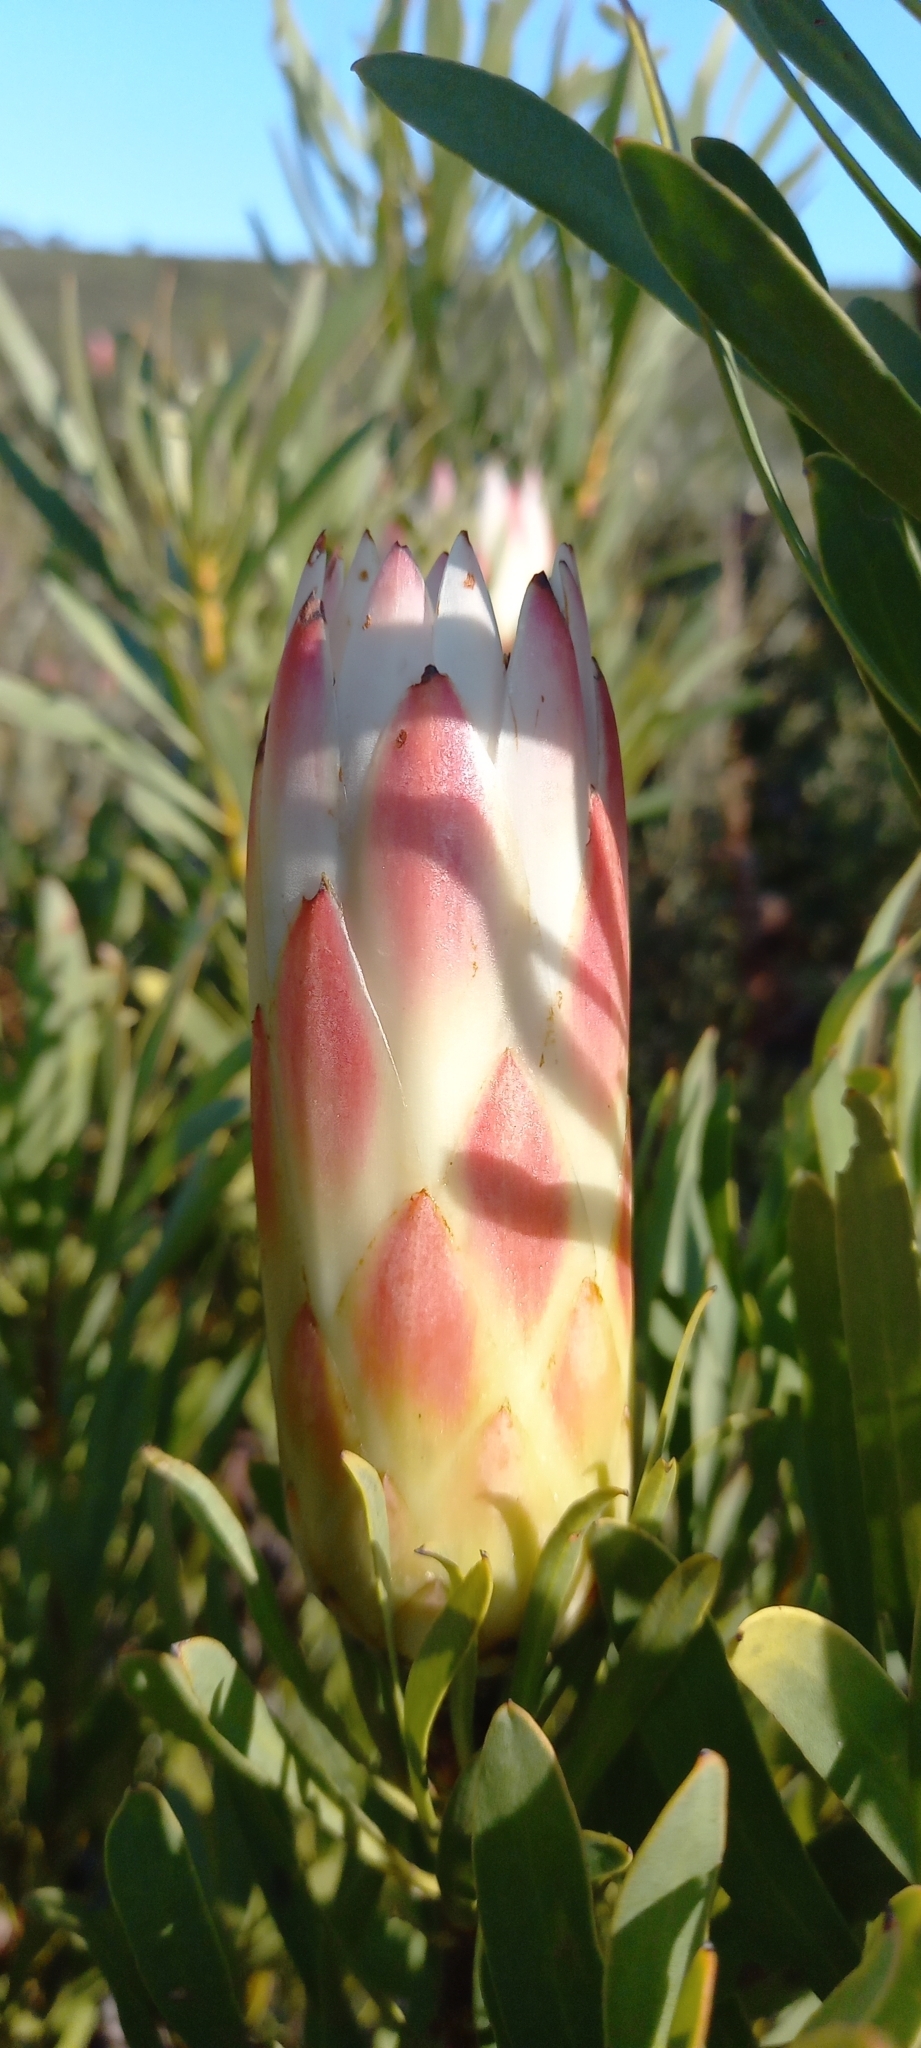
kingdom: Plantae
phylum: Tracheophyta
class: Magnoliopsida
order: Proteales
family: Proteaceae
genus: Protea
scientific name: Protea repens
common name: Sugarbush
